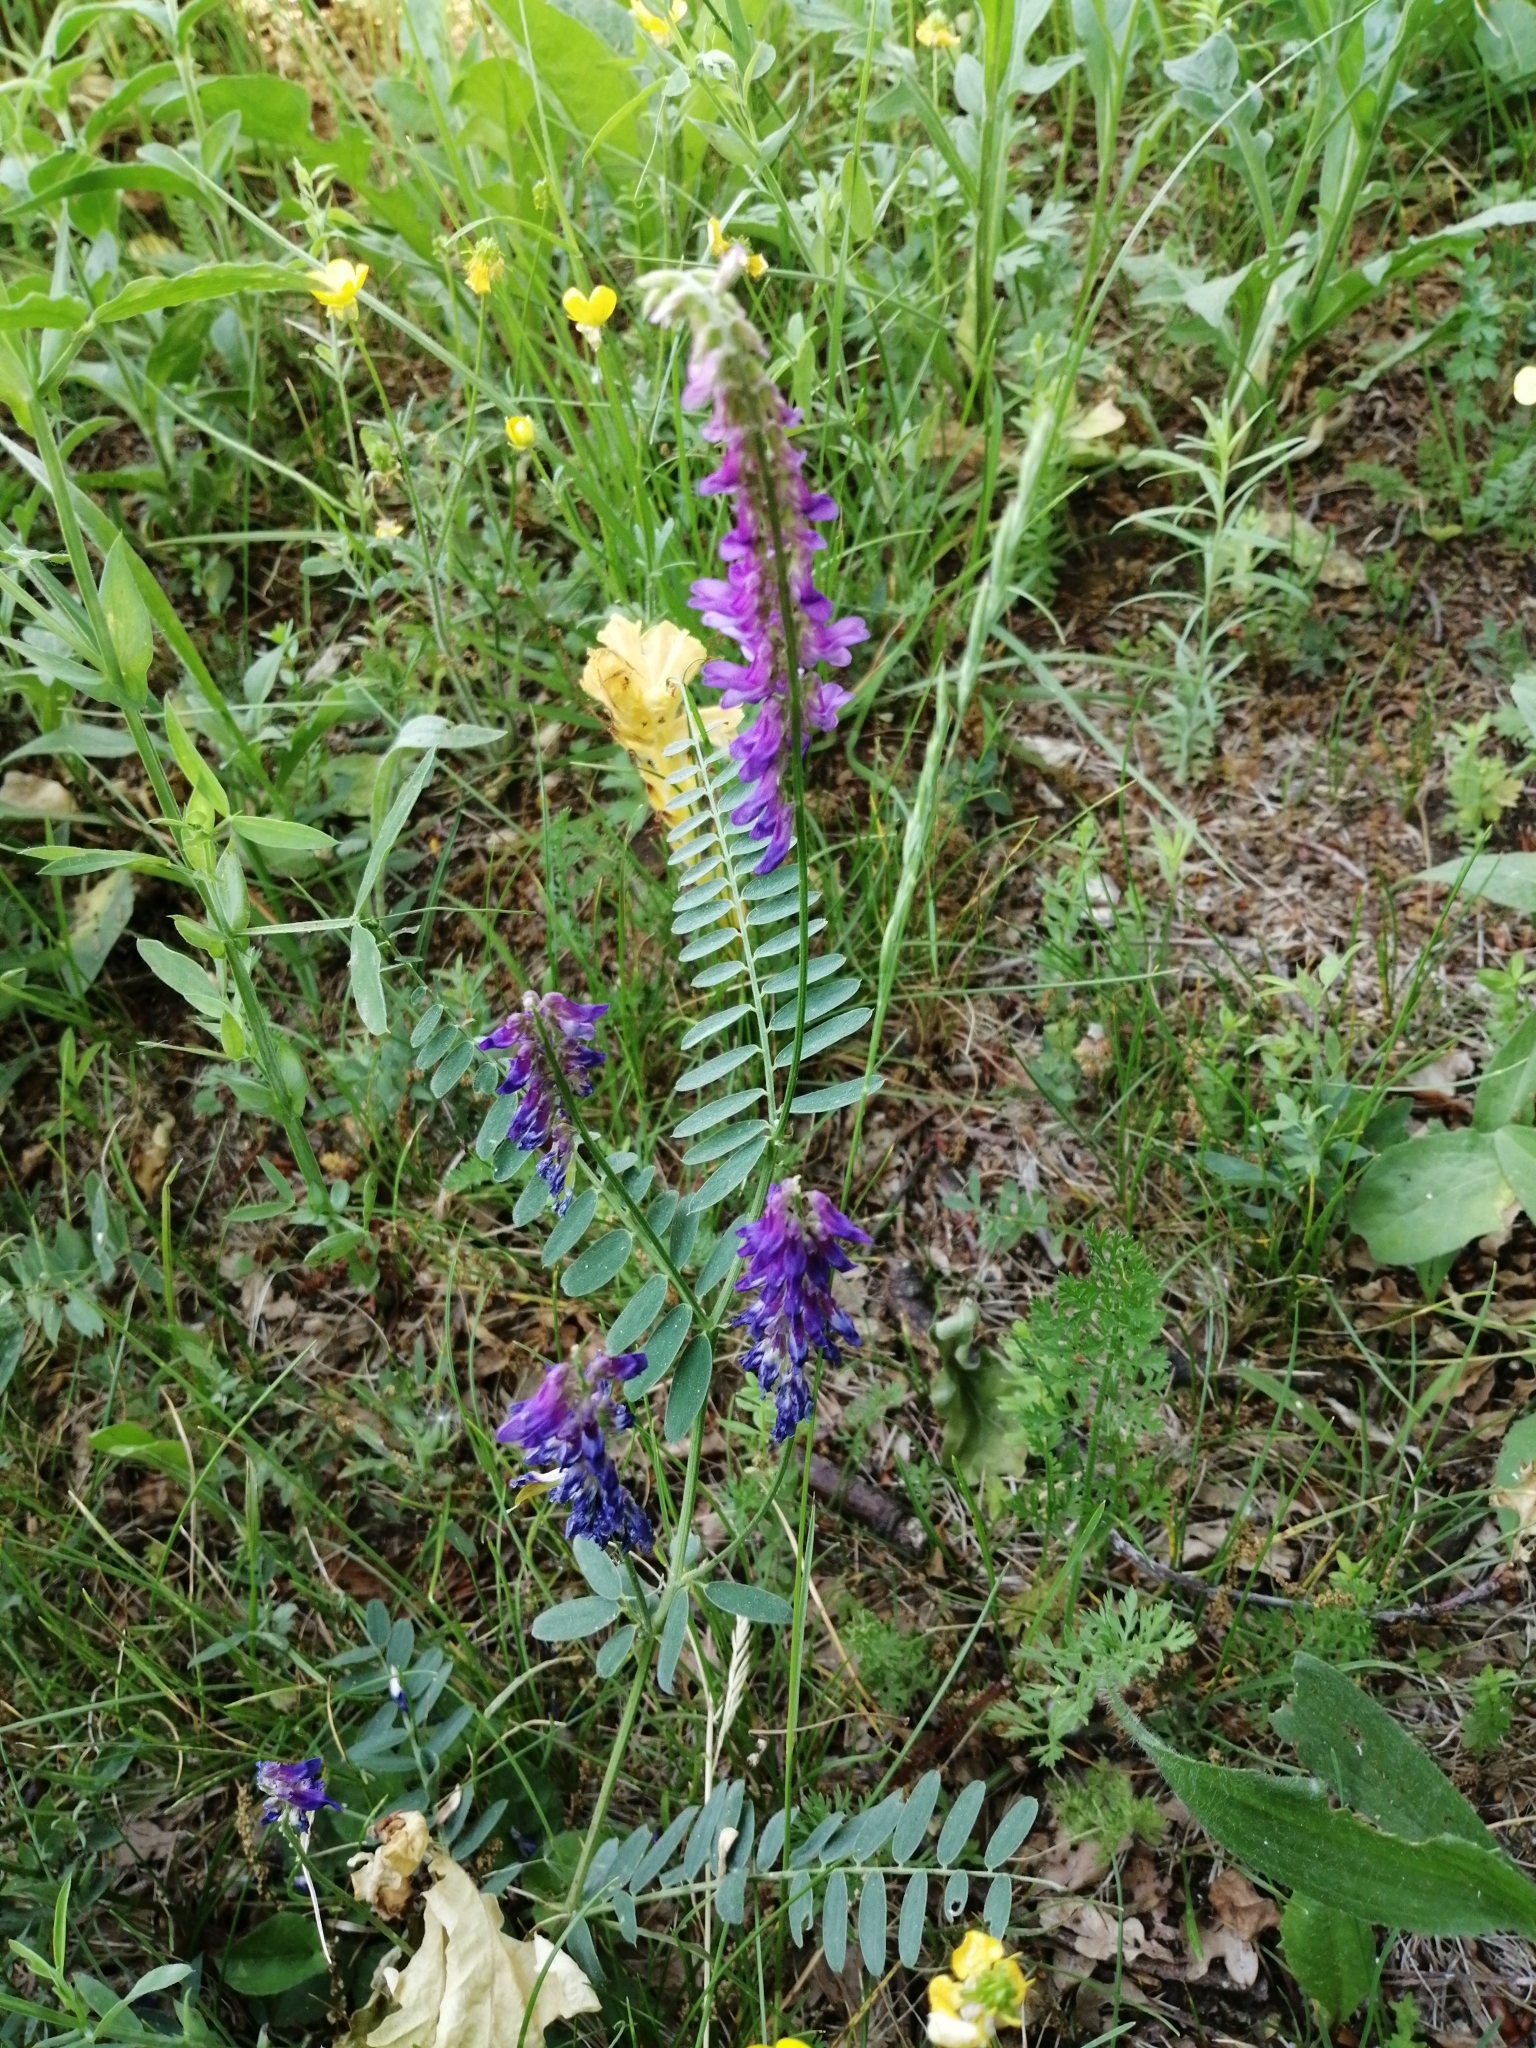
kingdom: Plantae
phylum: Tracheophyta
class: Magnoliopsida
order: Fabales
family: Fabaceae
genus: Vicia
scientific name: Vicia cracca
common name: Bird vetch
